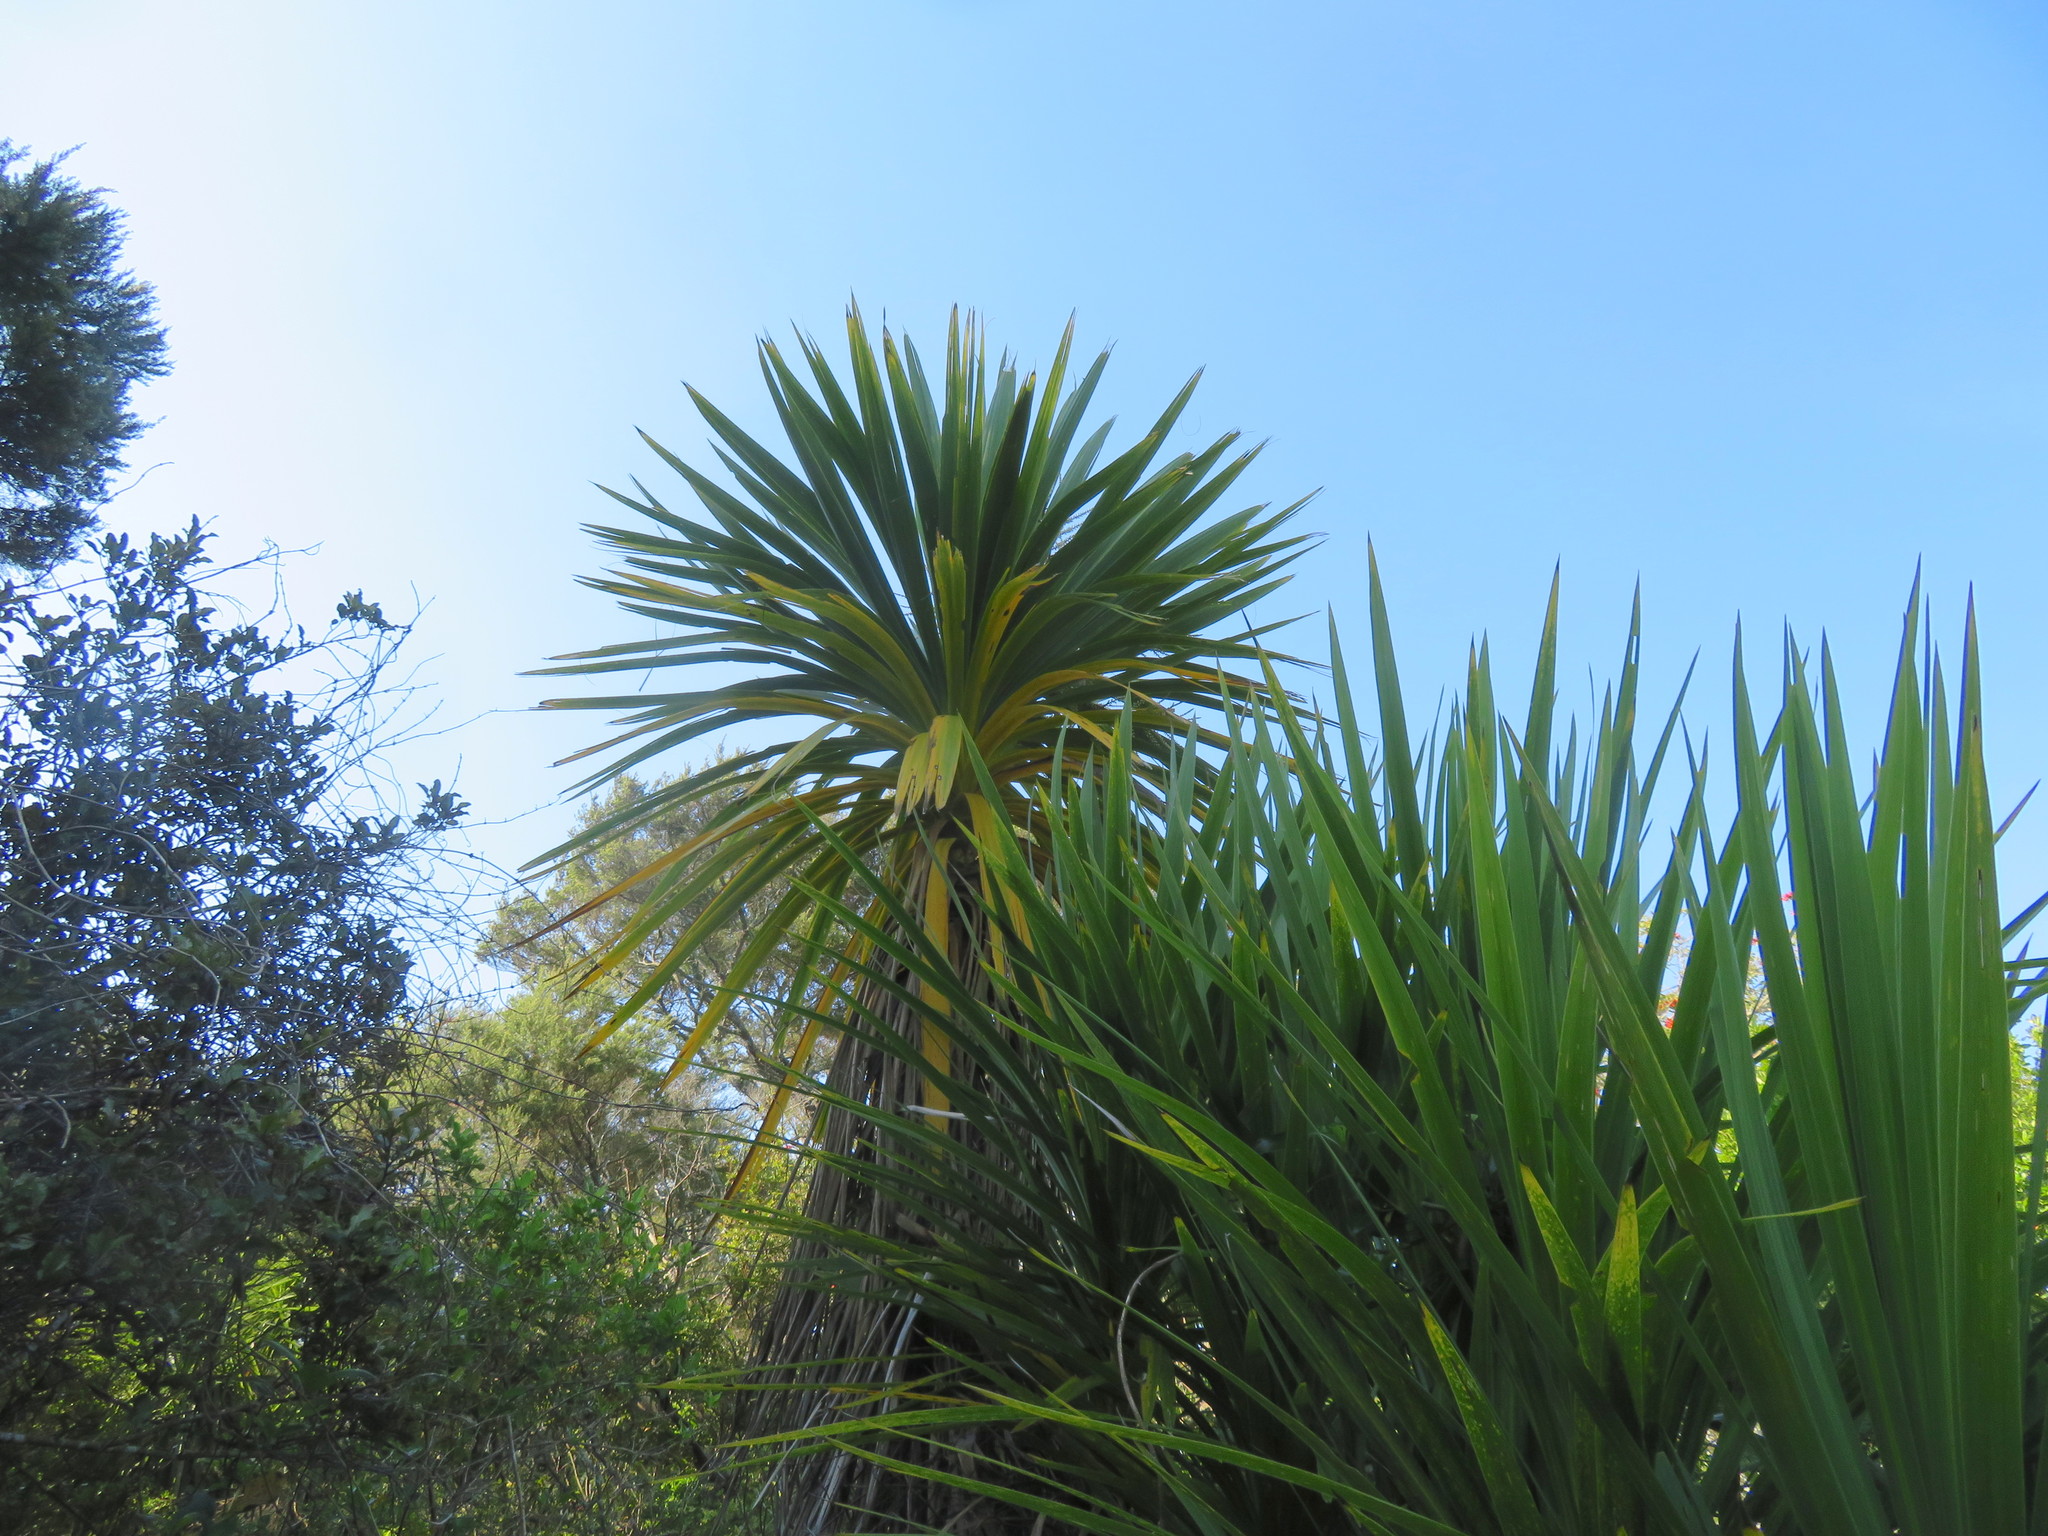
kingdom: Plantae
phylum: Tracheophyta
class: Liliopsida
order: Asparagales
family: Asparagaceae
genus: Cordyline
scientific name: Cordyline australis
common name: Cabbage-palm
